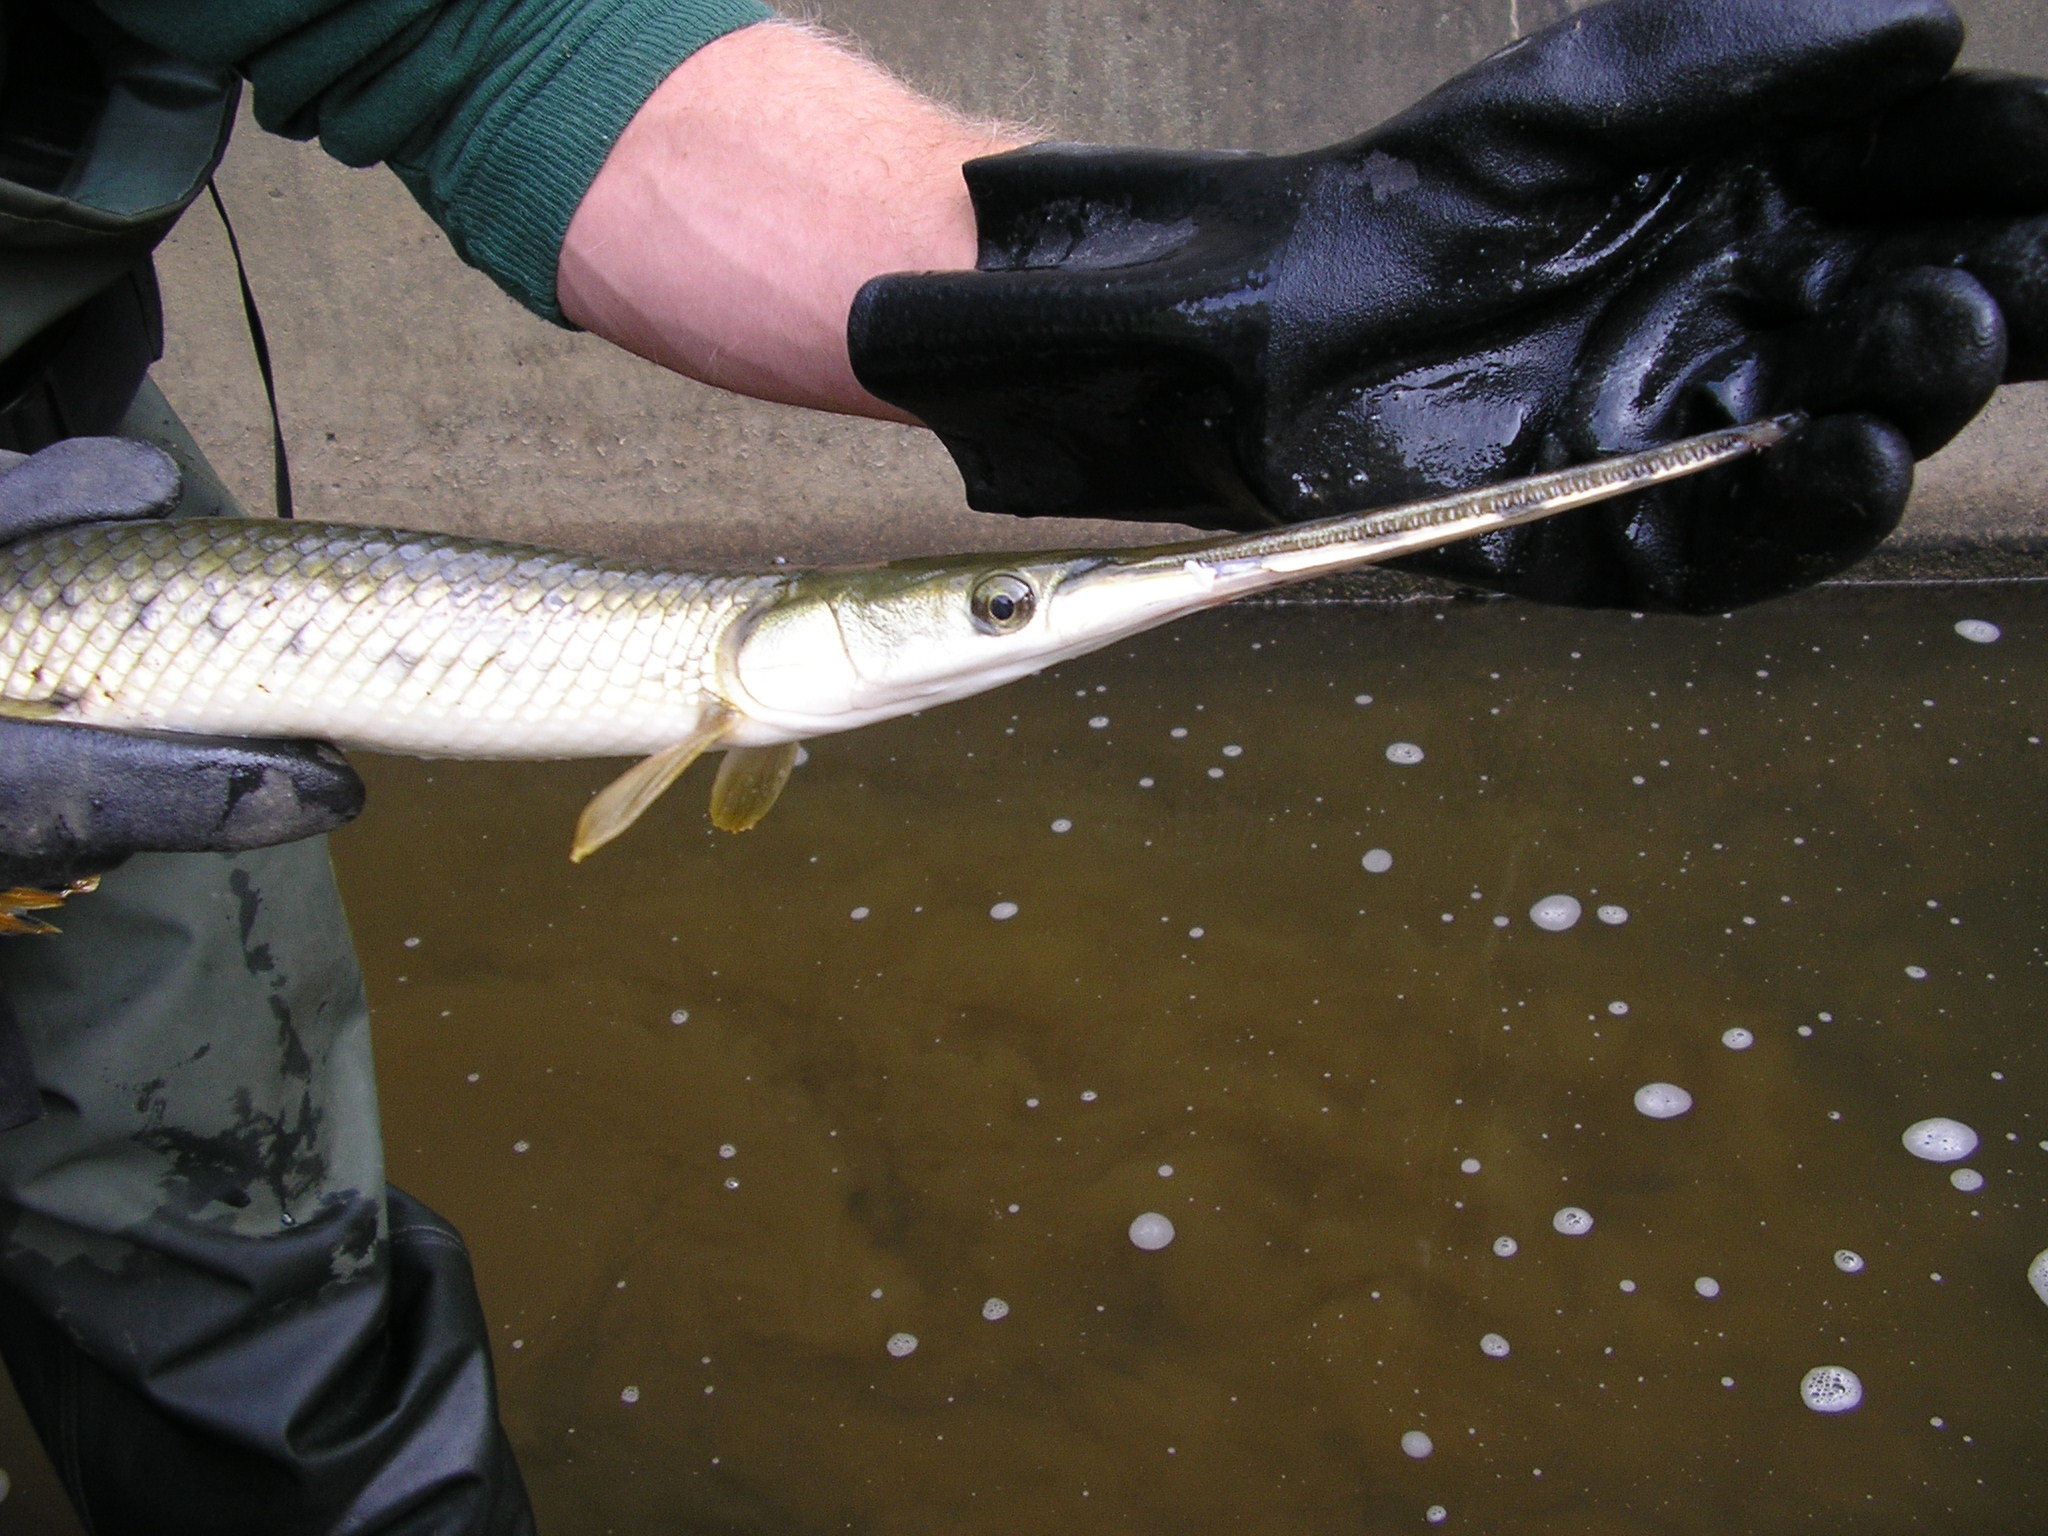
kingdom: Animalia
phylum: Chordata
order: Lepisosteiformes
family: Lepisosteidae
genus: Lepisosteus
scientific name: Lepisosteus osseus
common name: Longnose gar
